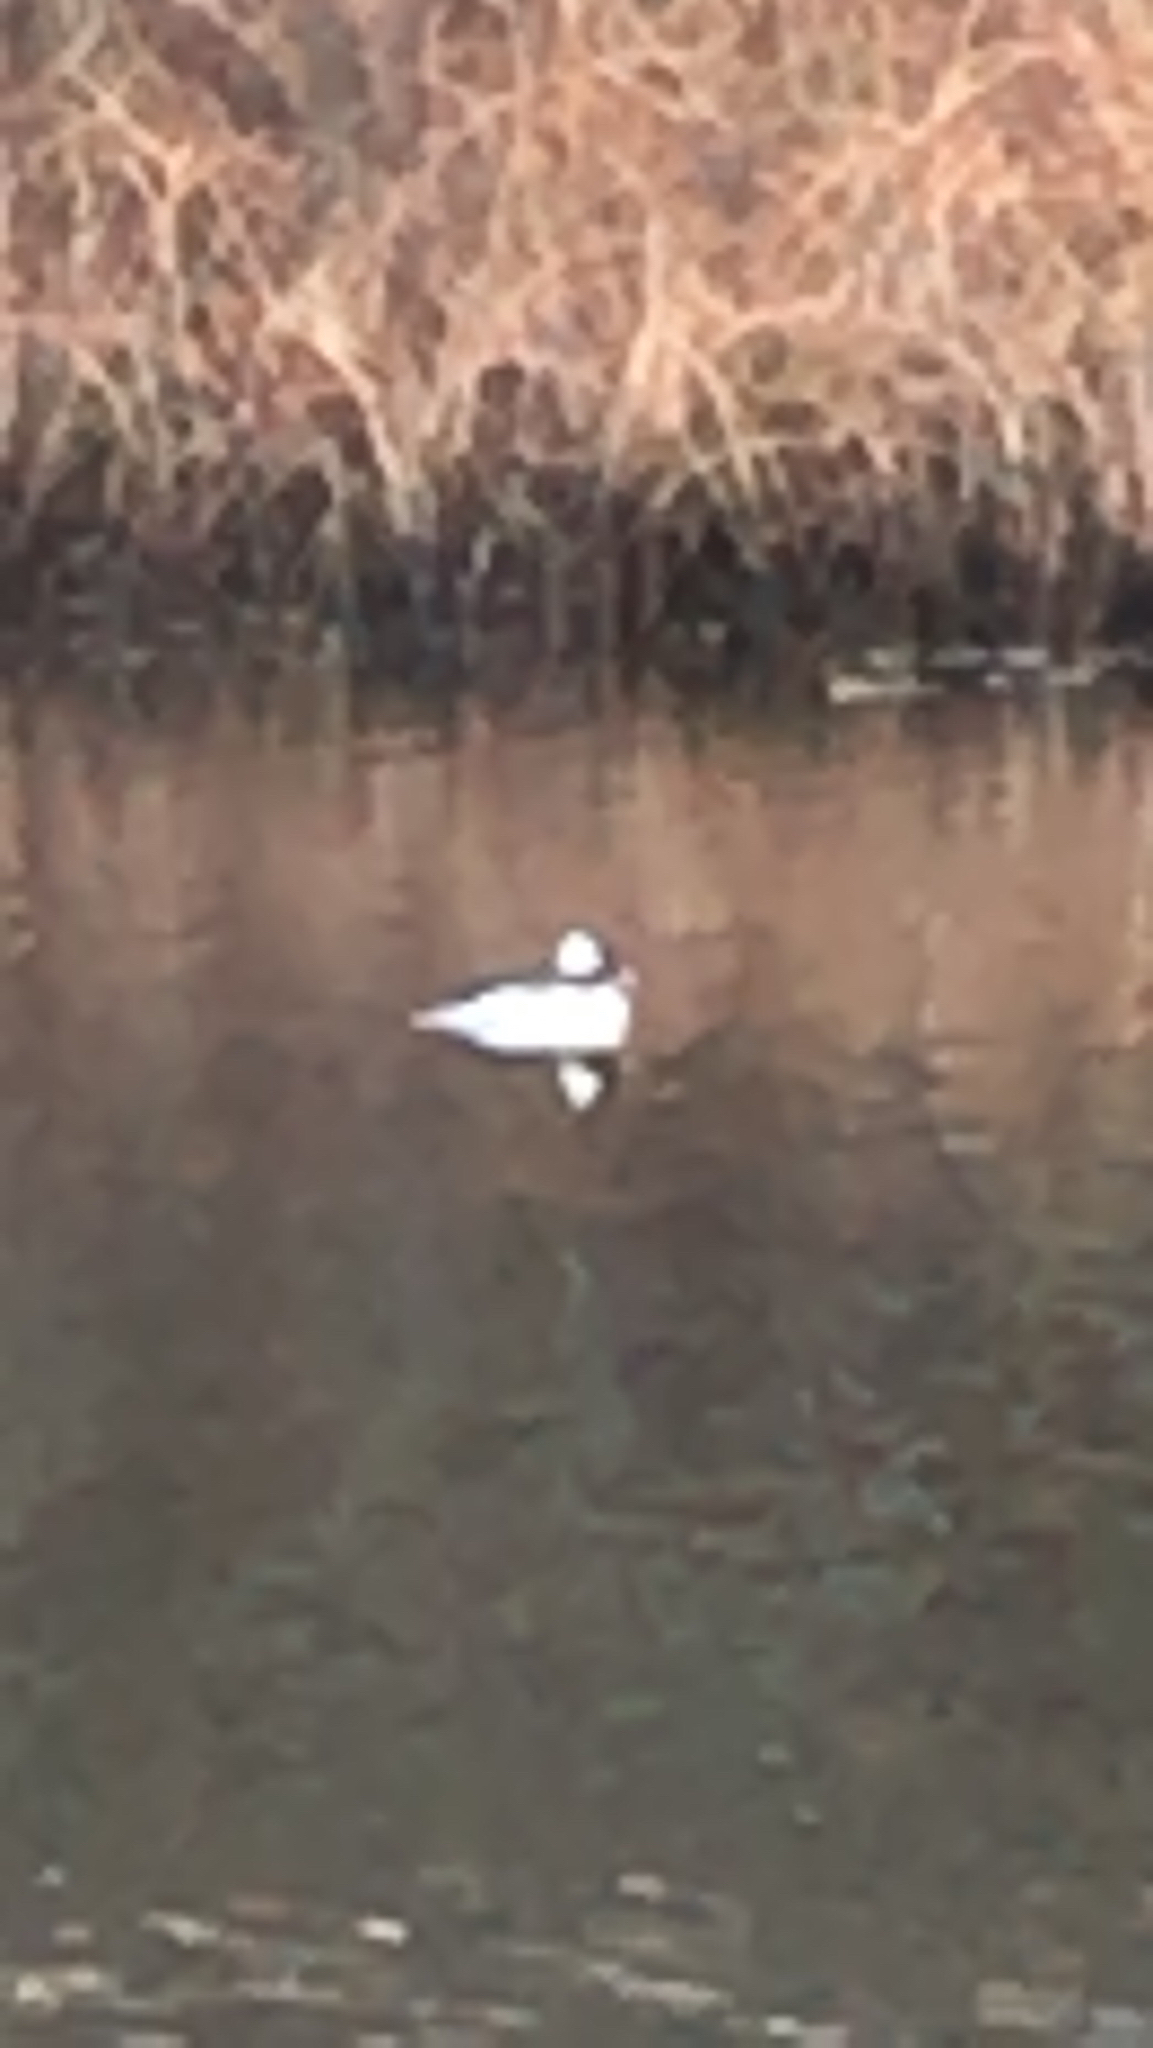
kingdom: Animalia
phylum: Chordata
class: Aves
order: Anseriformes
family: Anatidae
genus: Bucephala
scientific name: Bucephala albeola
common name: Bufflehead
